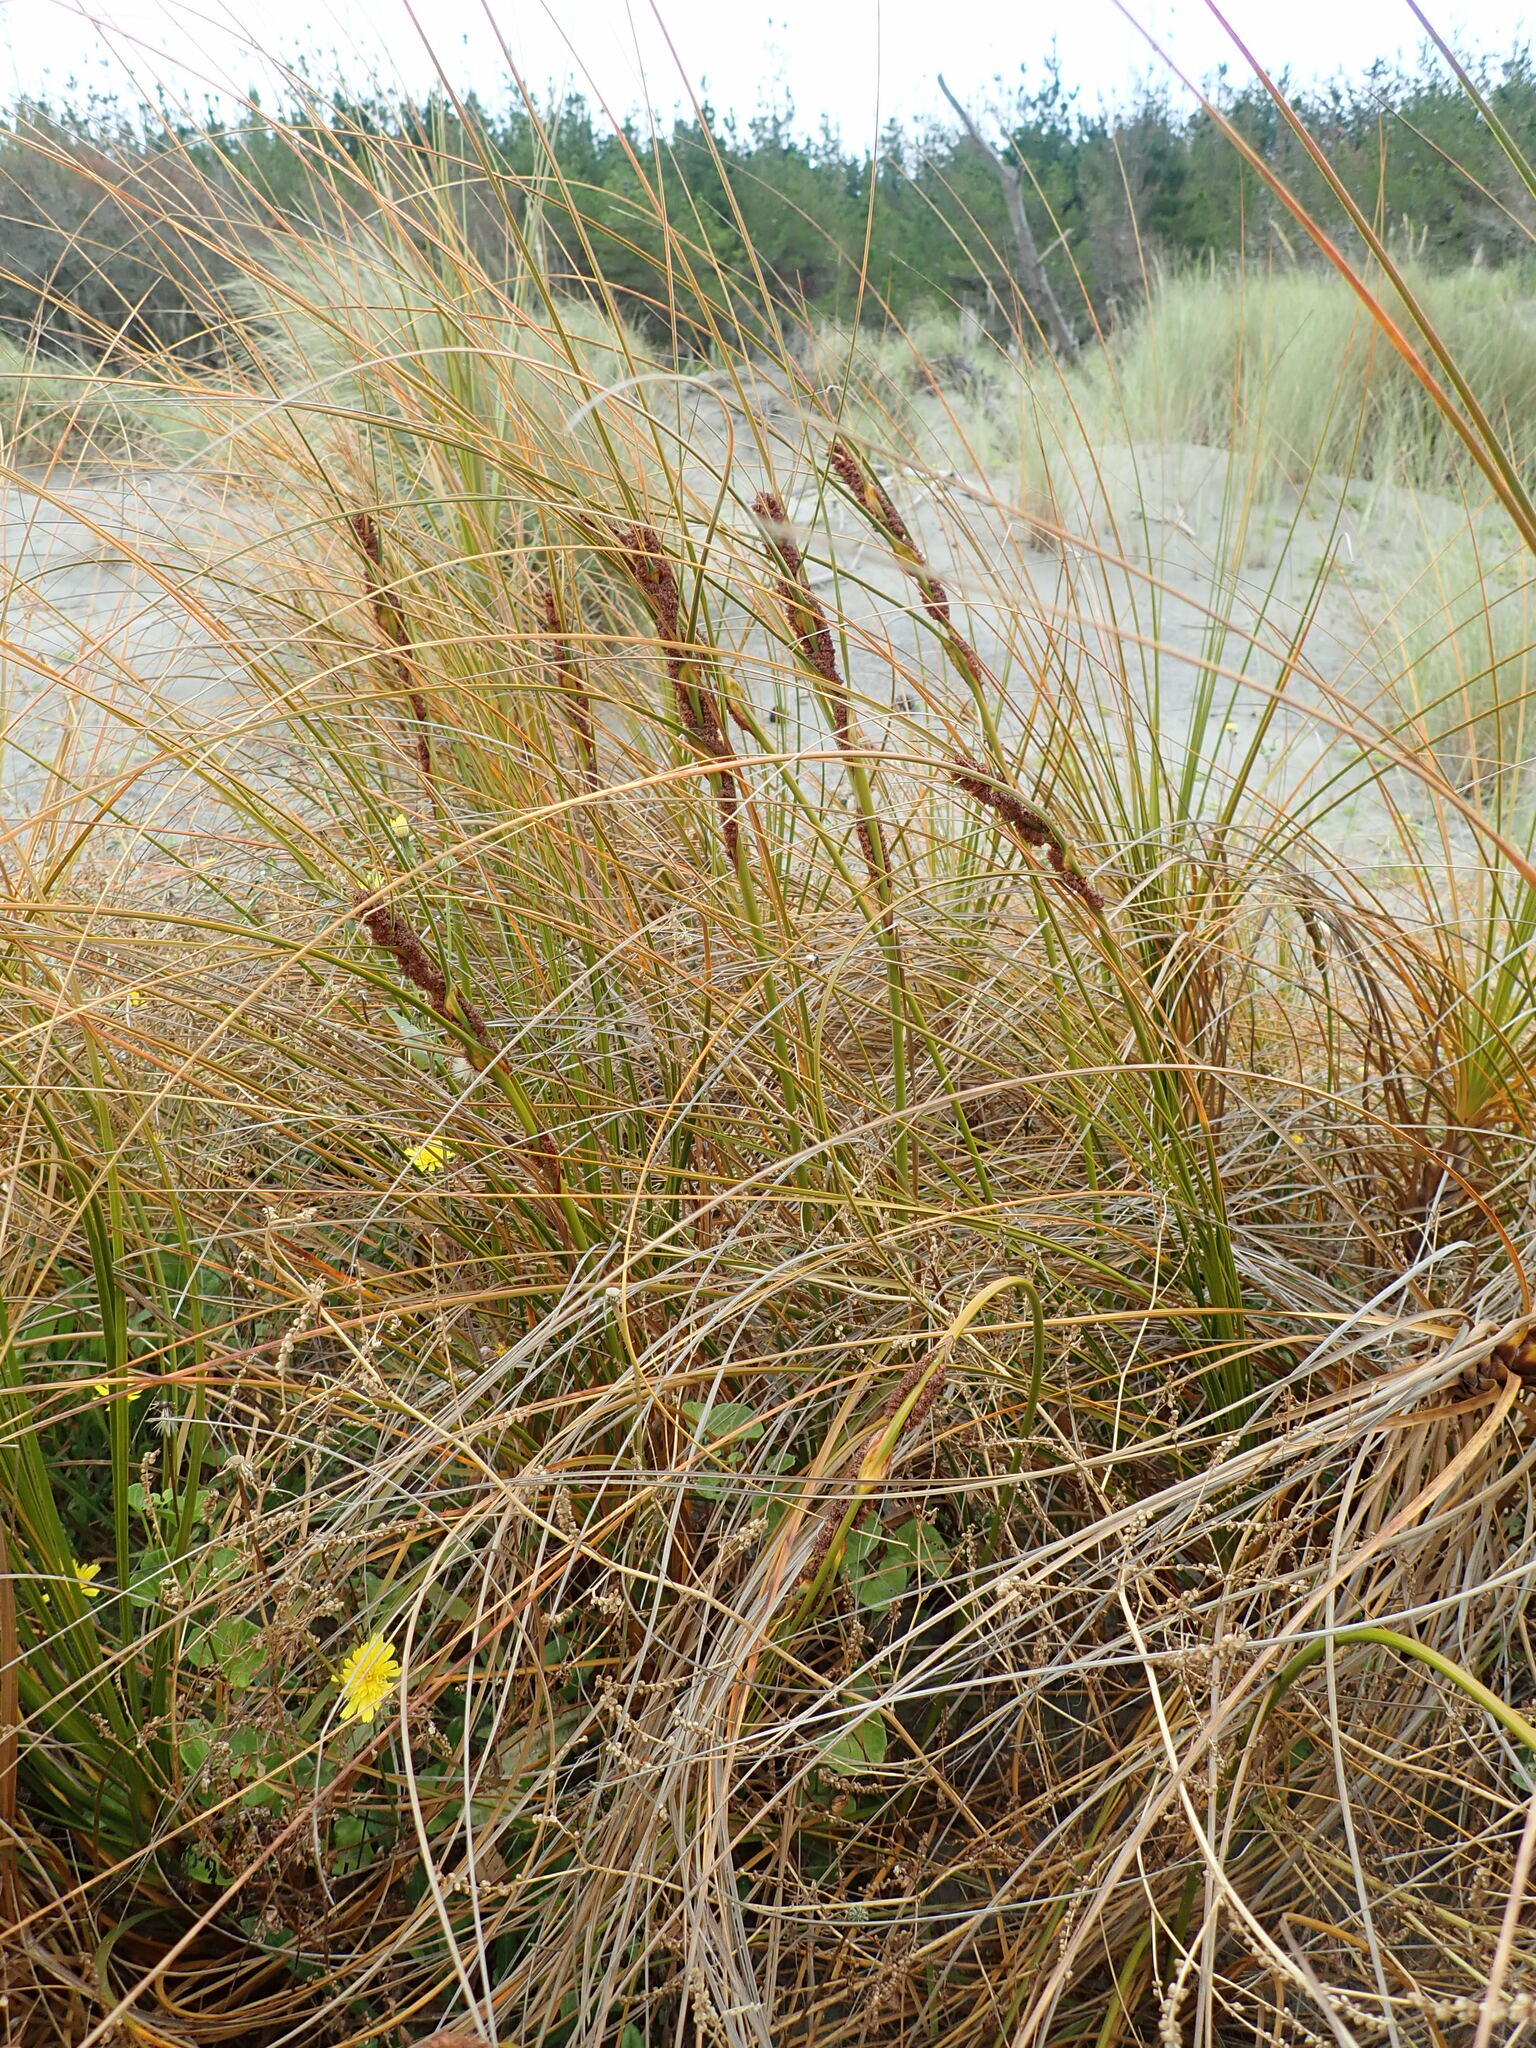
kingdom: Plantae
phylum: Tracheophyta
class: Liliopsida
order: Poales
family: Cyperaceae
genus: Ficinia
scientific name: Ficinia spiralis
